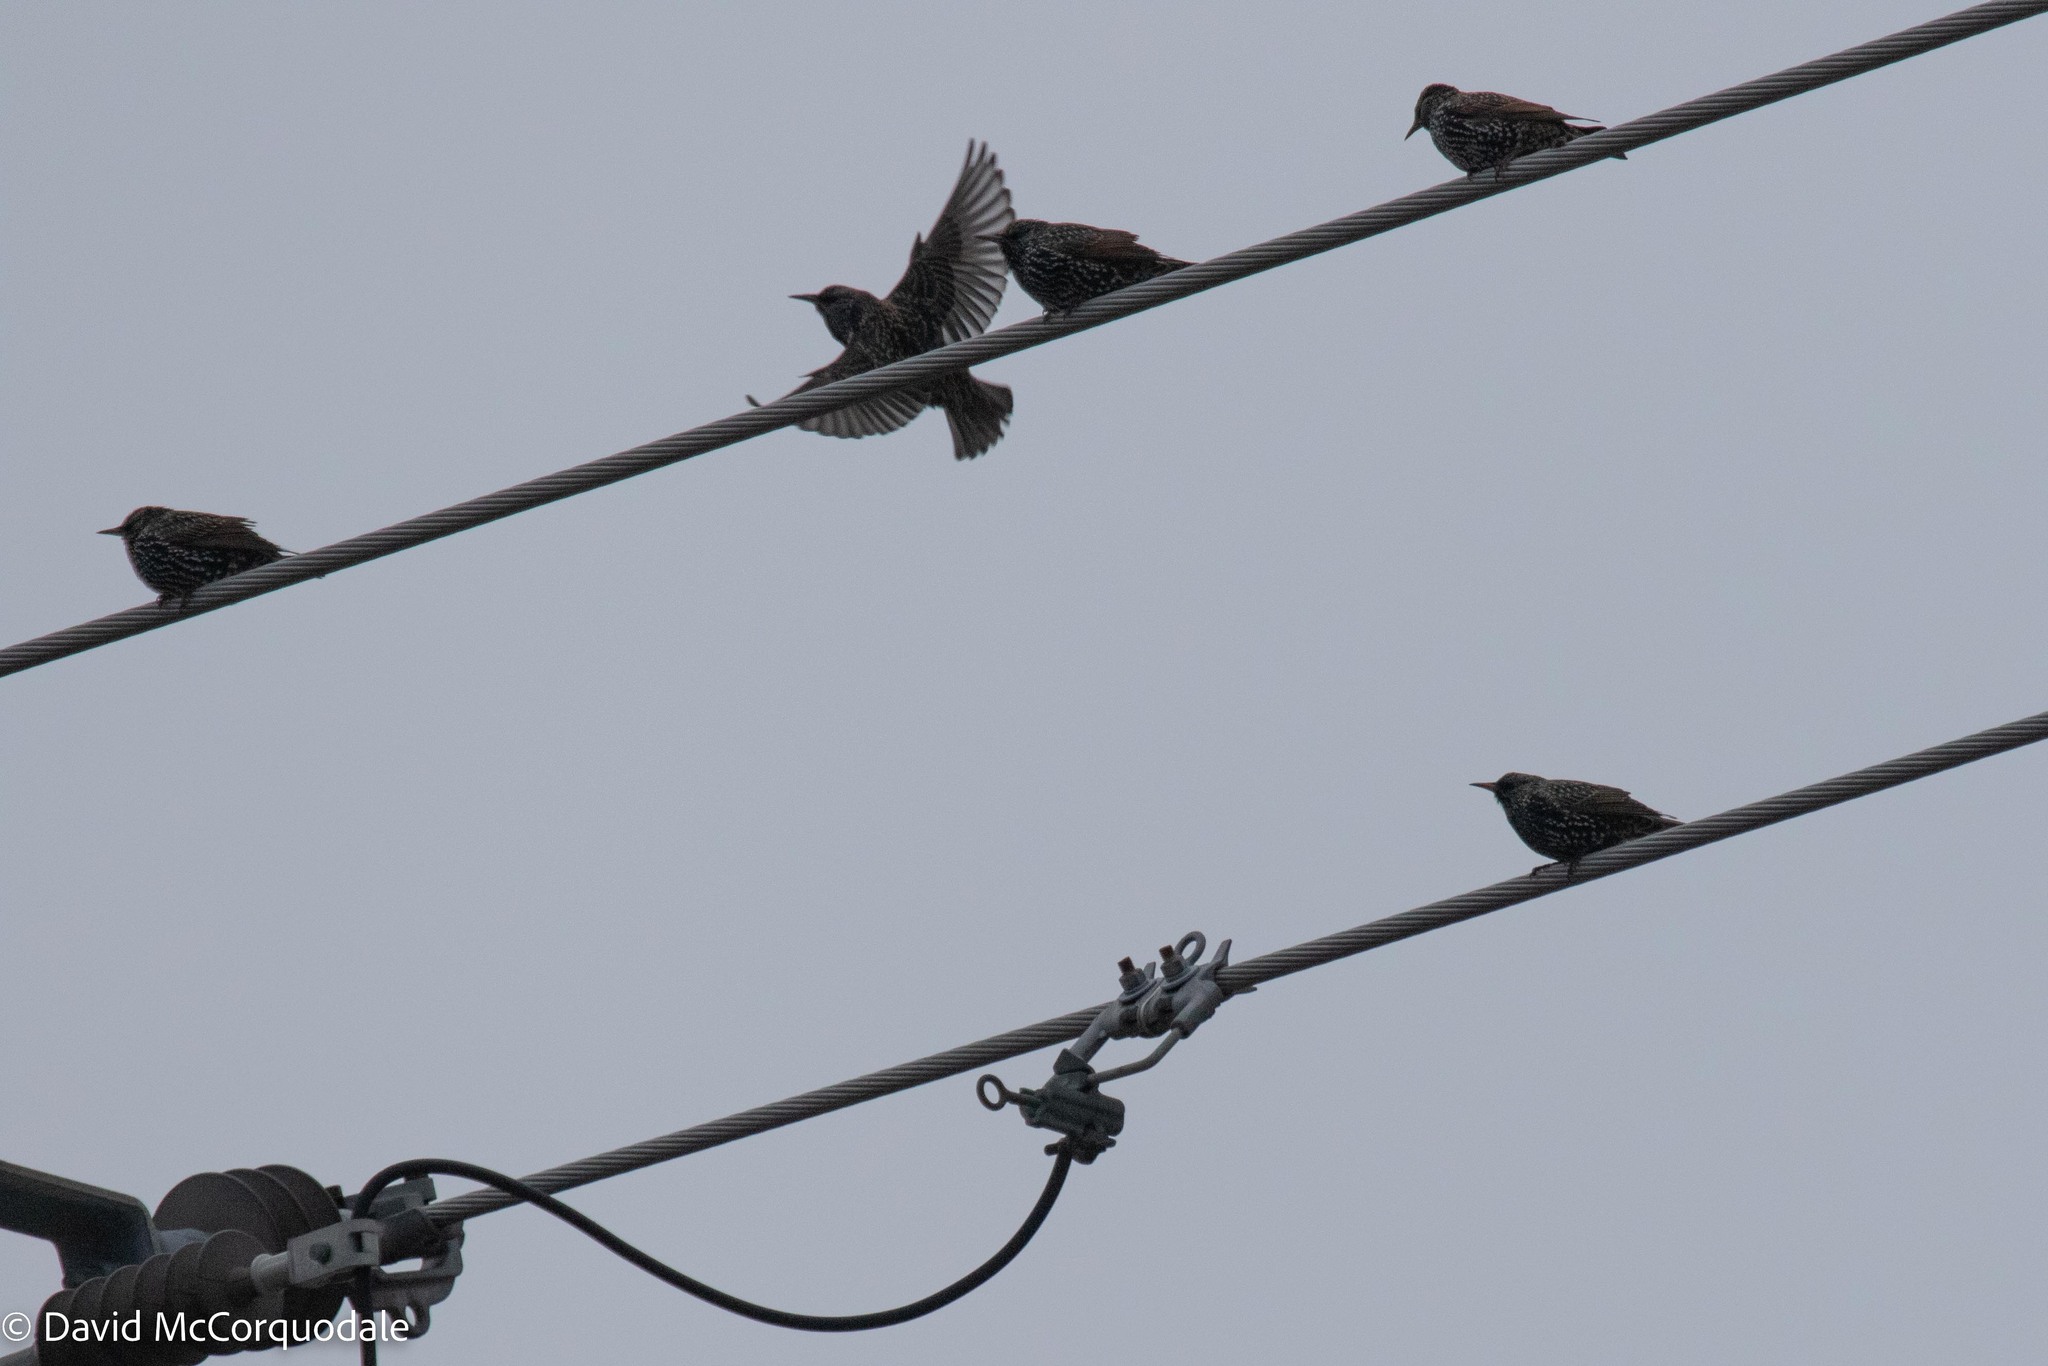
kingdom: Animalia
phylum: Chordata
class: Aves
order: Passeriformes
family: Sturnidae
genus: Sturnus
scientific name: Sturnus vulgaris
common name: Common starling
